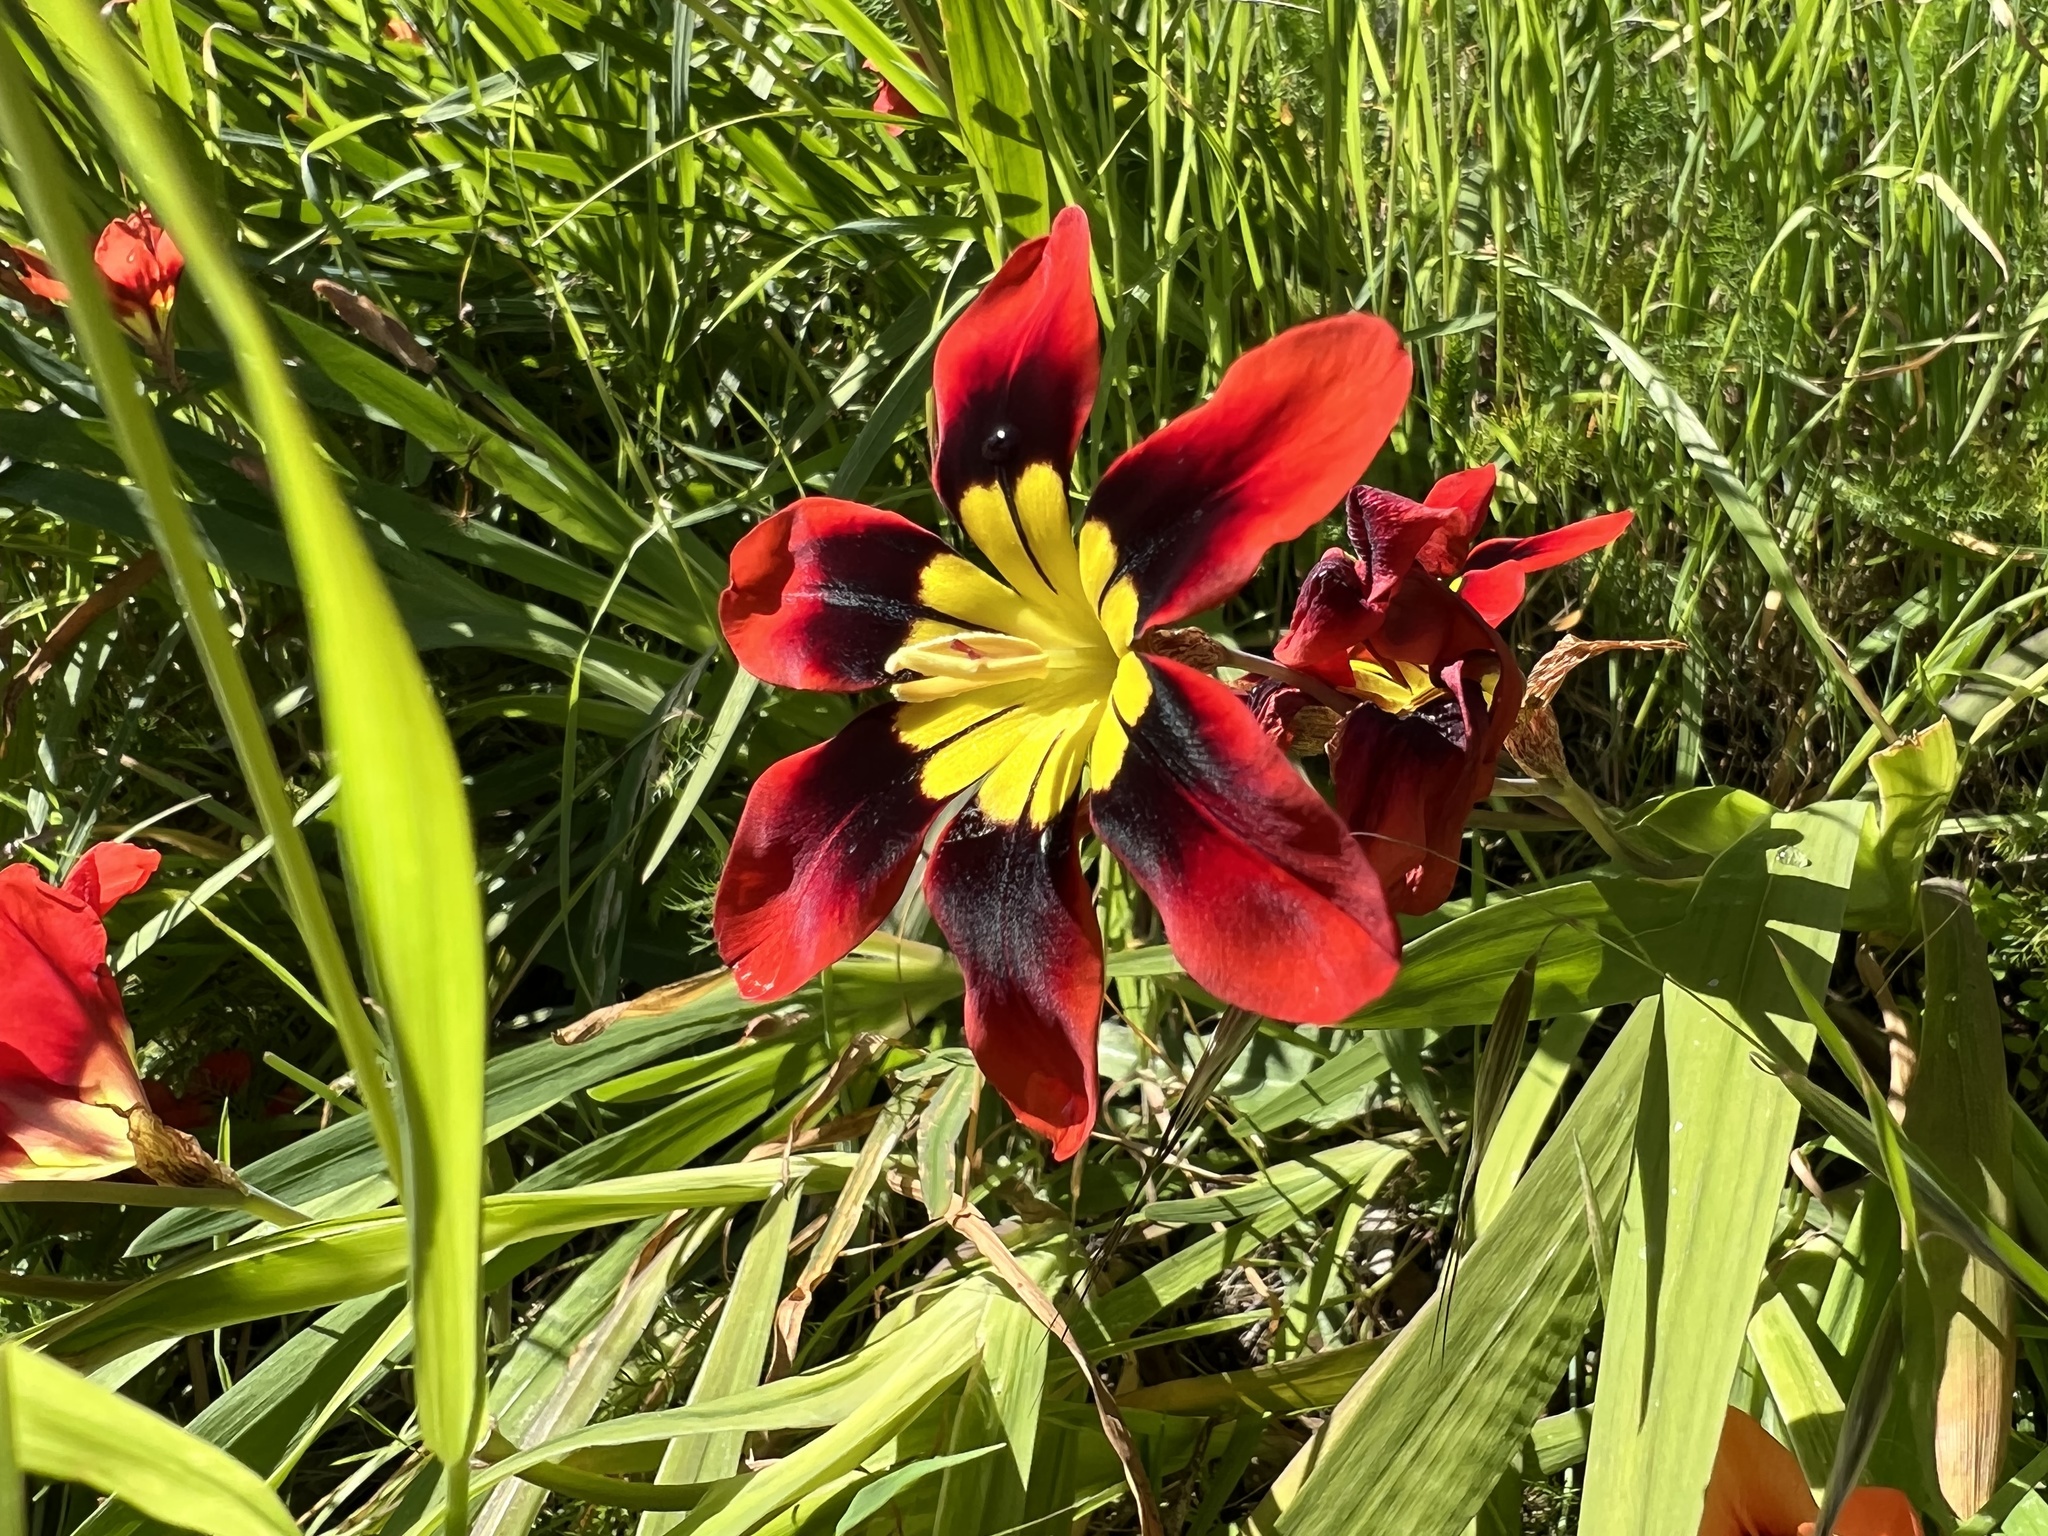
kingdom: Plantae
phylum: Tracheophyta
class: Liliopsida
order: Asparagales
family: Iridaceae
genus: Sparaxis
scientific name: Sparaxis tricolor
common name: Wandflower
